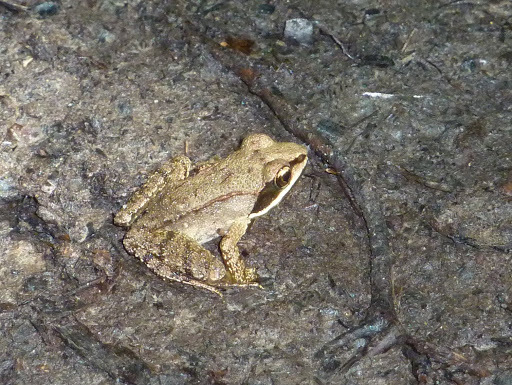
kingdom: Animalia
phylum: Chordata
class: Amphibia
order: Anura
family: Ranidae
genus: Lithobates
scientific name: Lithobates sylvaticus
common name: Wood frog
